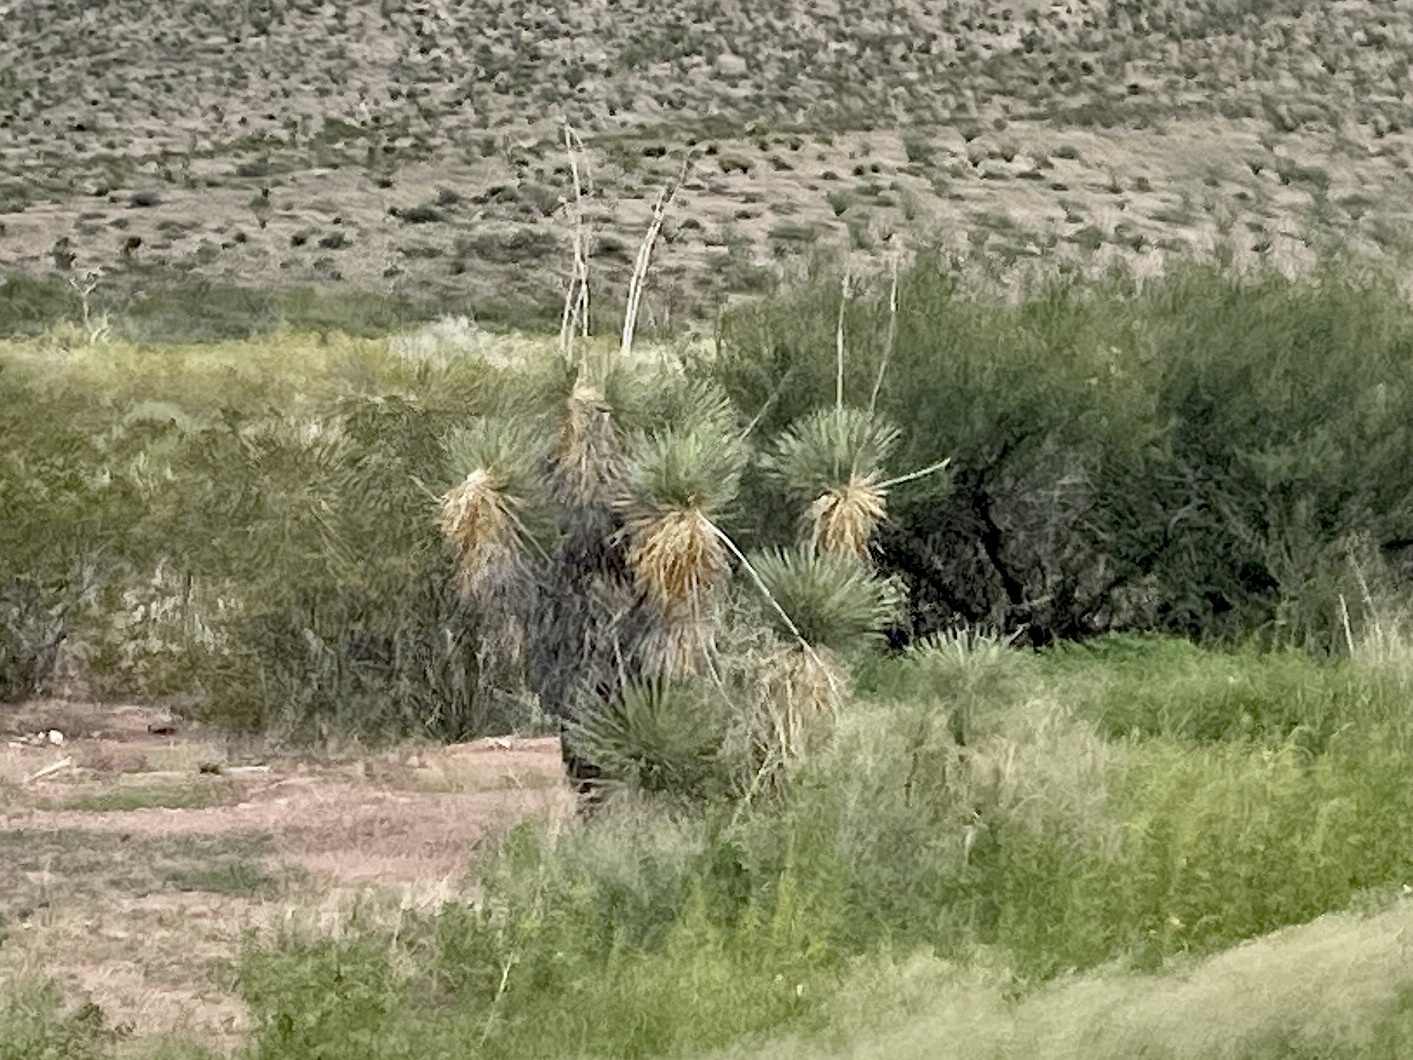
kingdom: Plantae
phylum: Tracheophyta
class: Liliopsida
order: Asparagales
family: Asparagaceae
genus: Yucca
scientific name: Yucca elata
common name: Palmella
